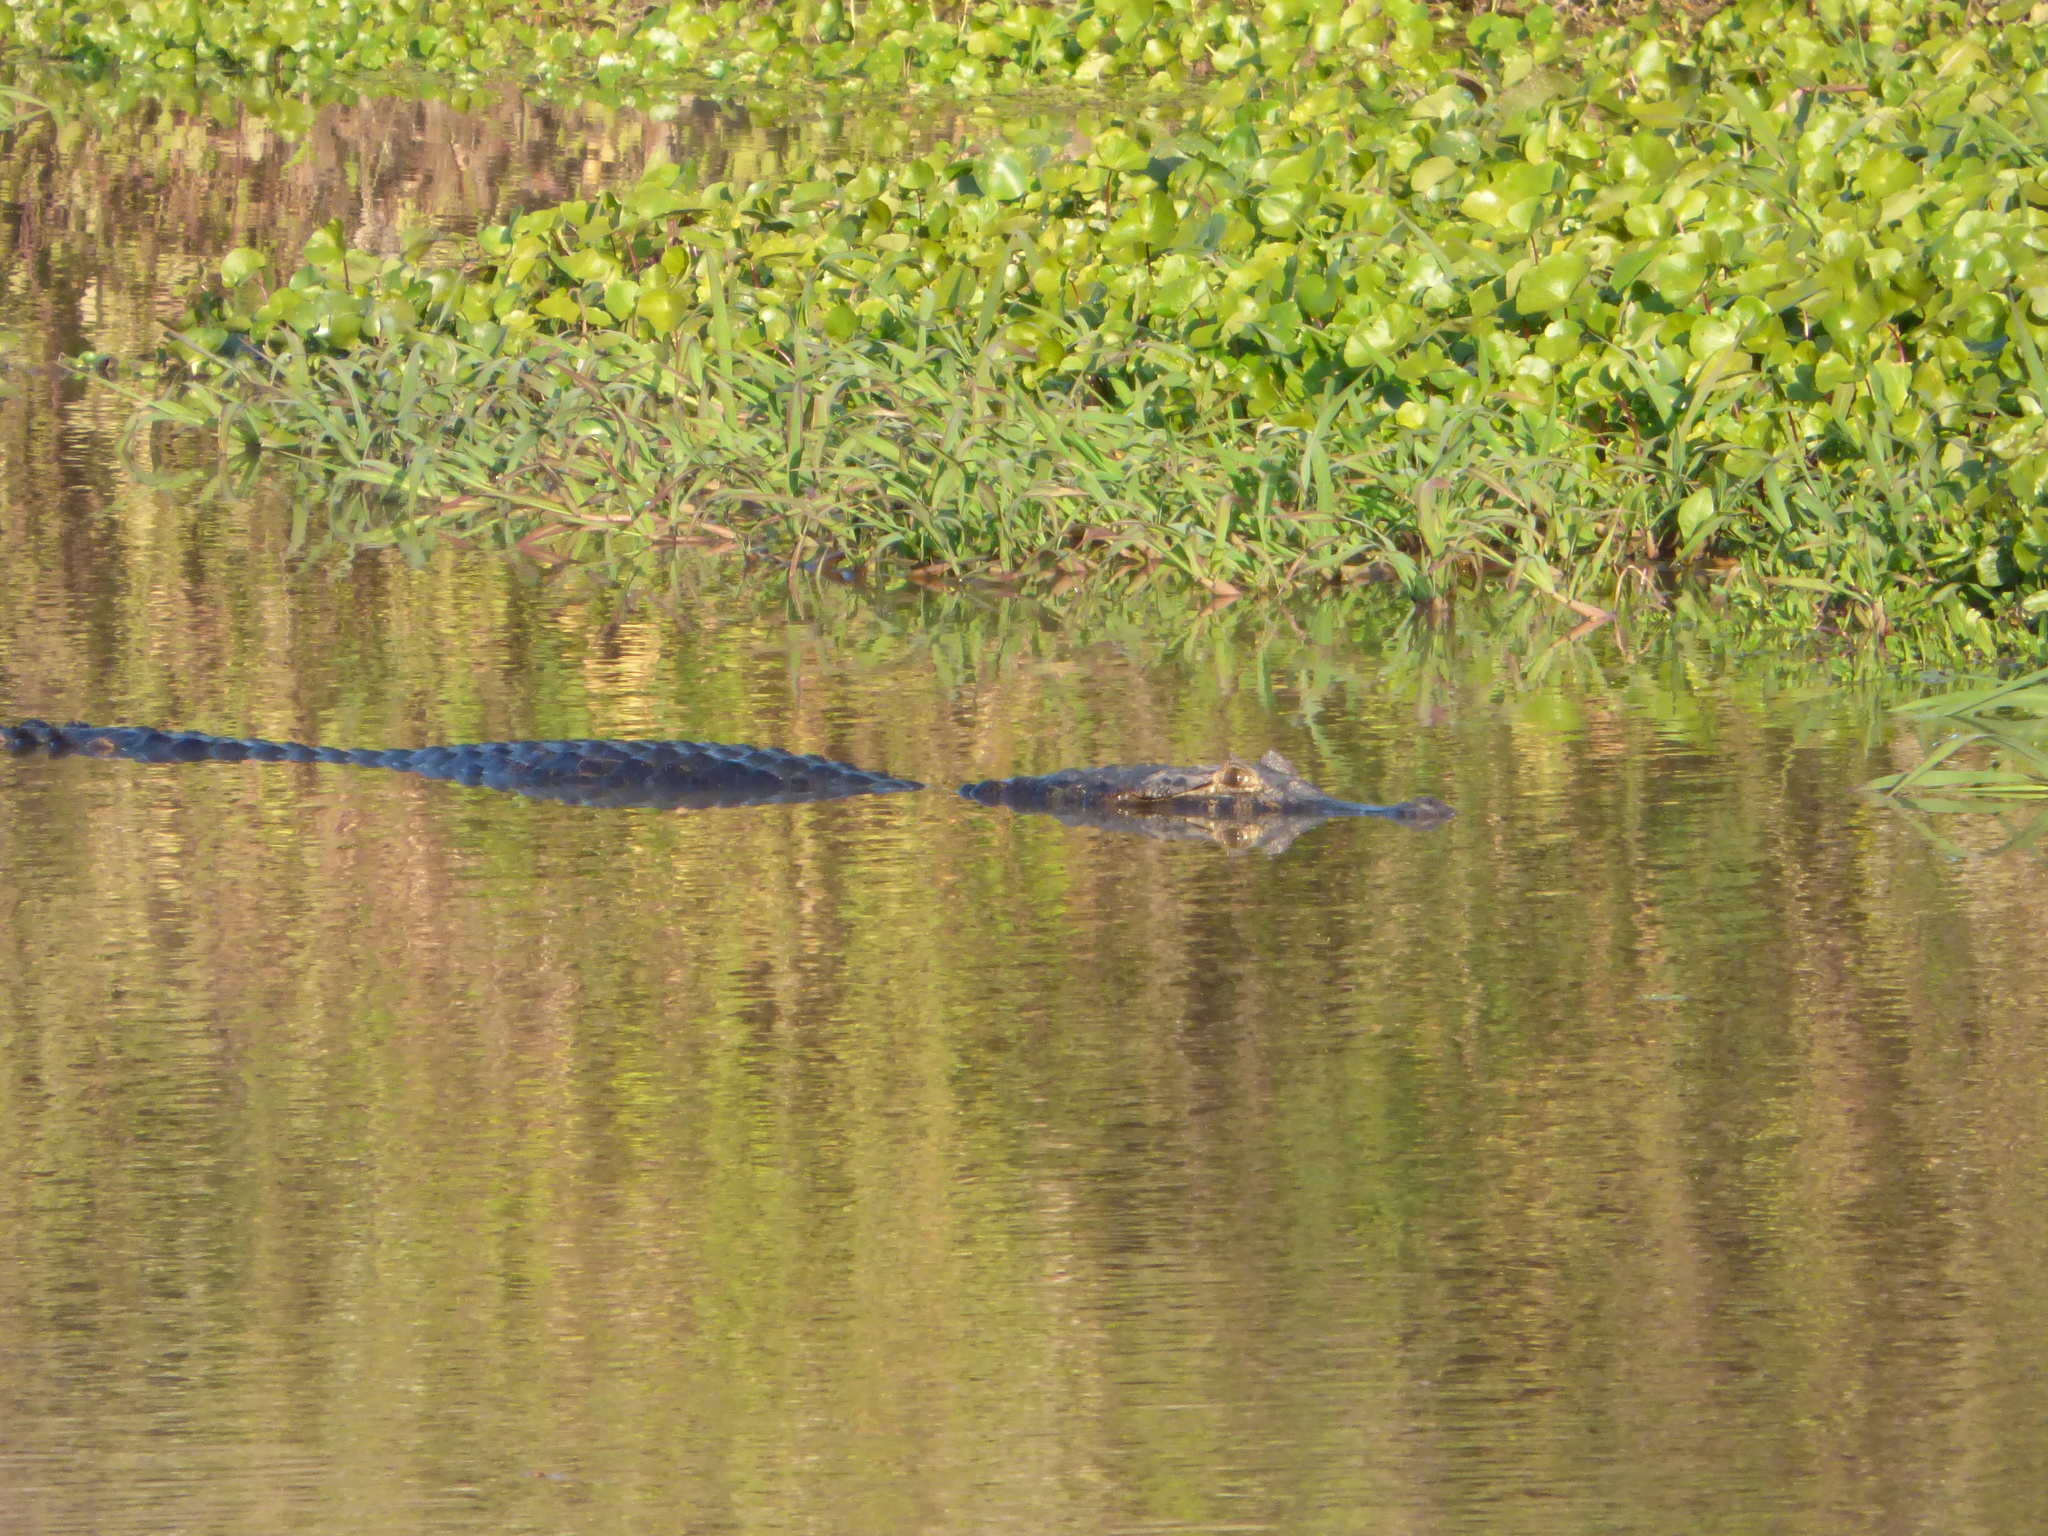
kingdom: Animalia
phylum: Chordata
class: Crocodylia
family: Alligatoridae
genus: Caiman
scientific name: Caiman yacare
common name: Yacare caiman
